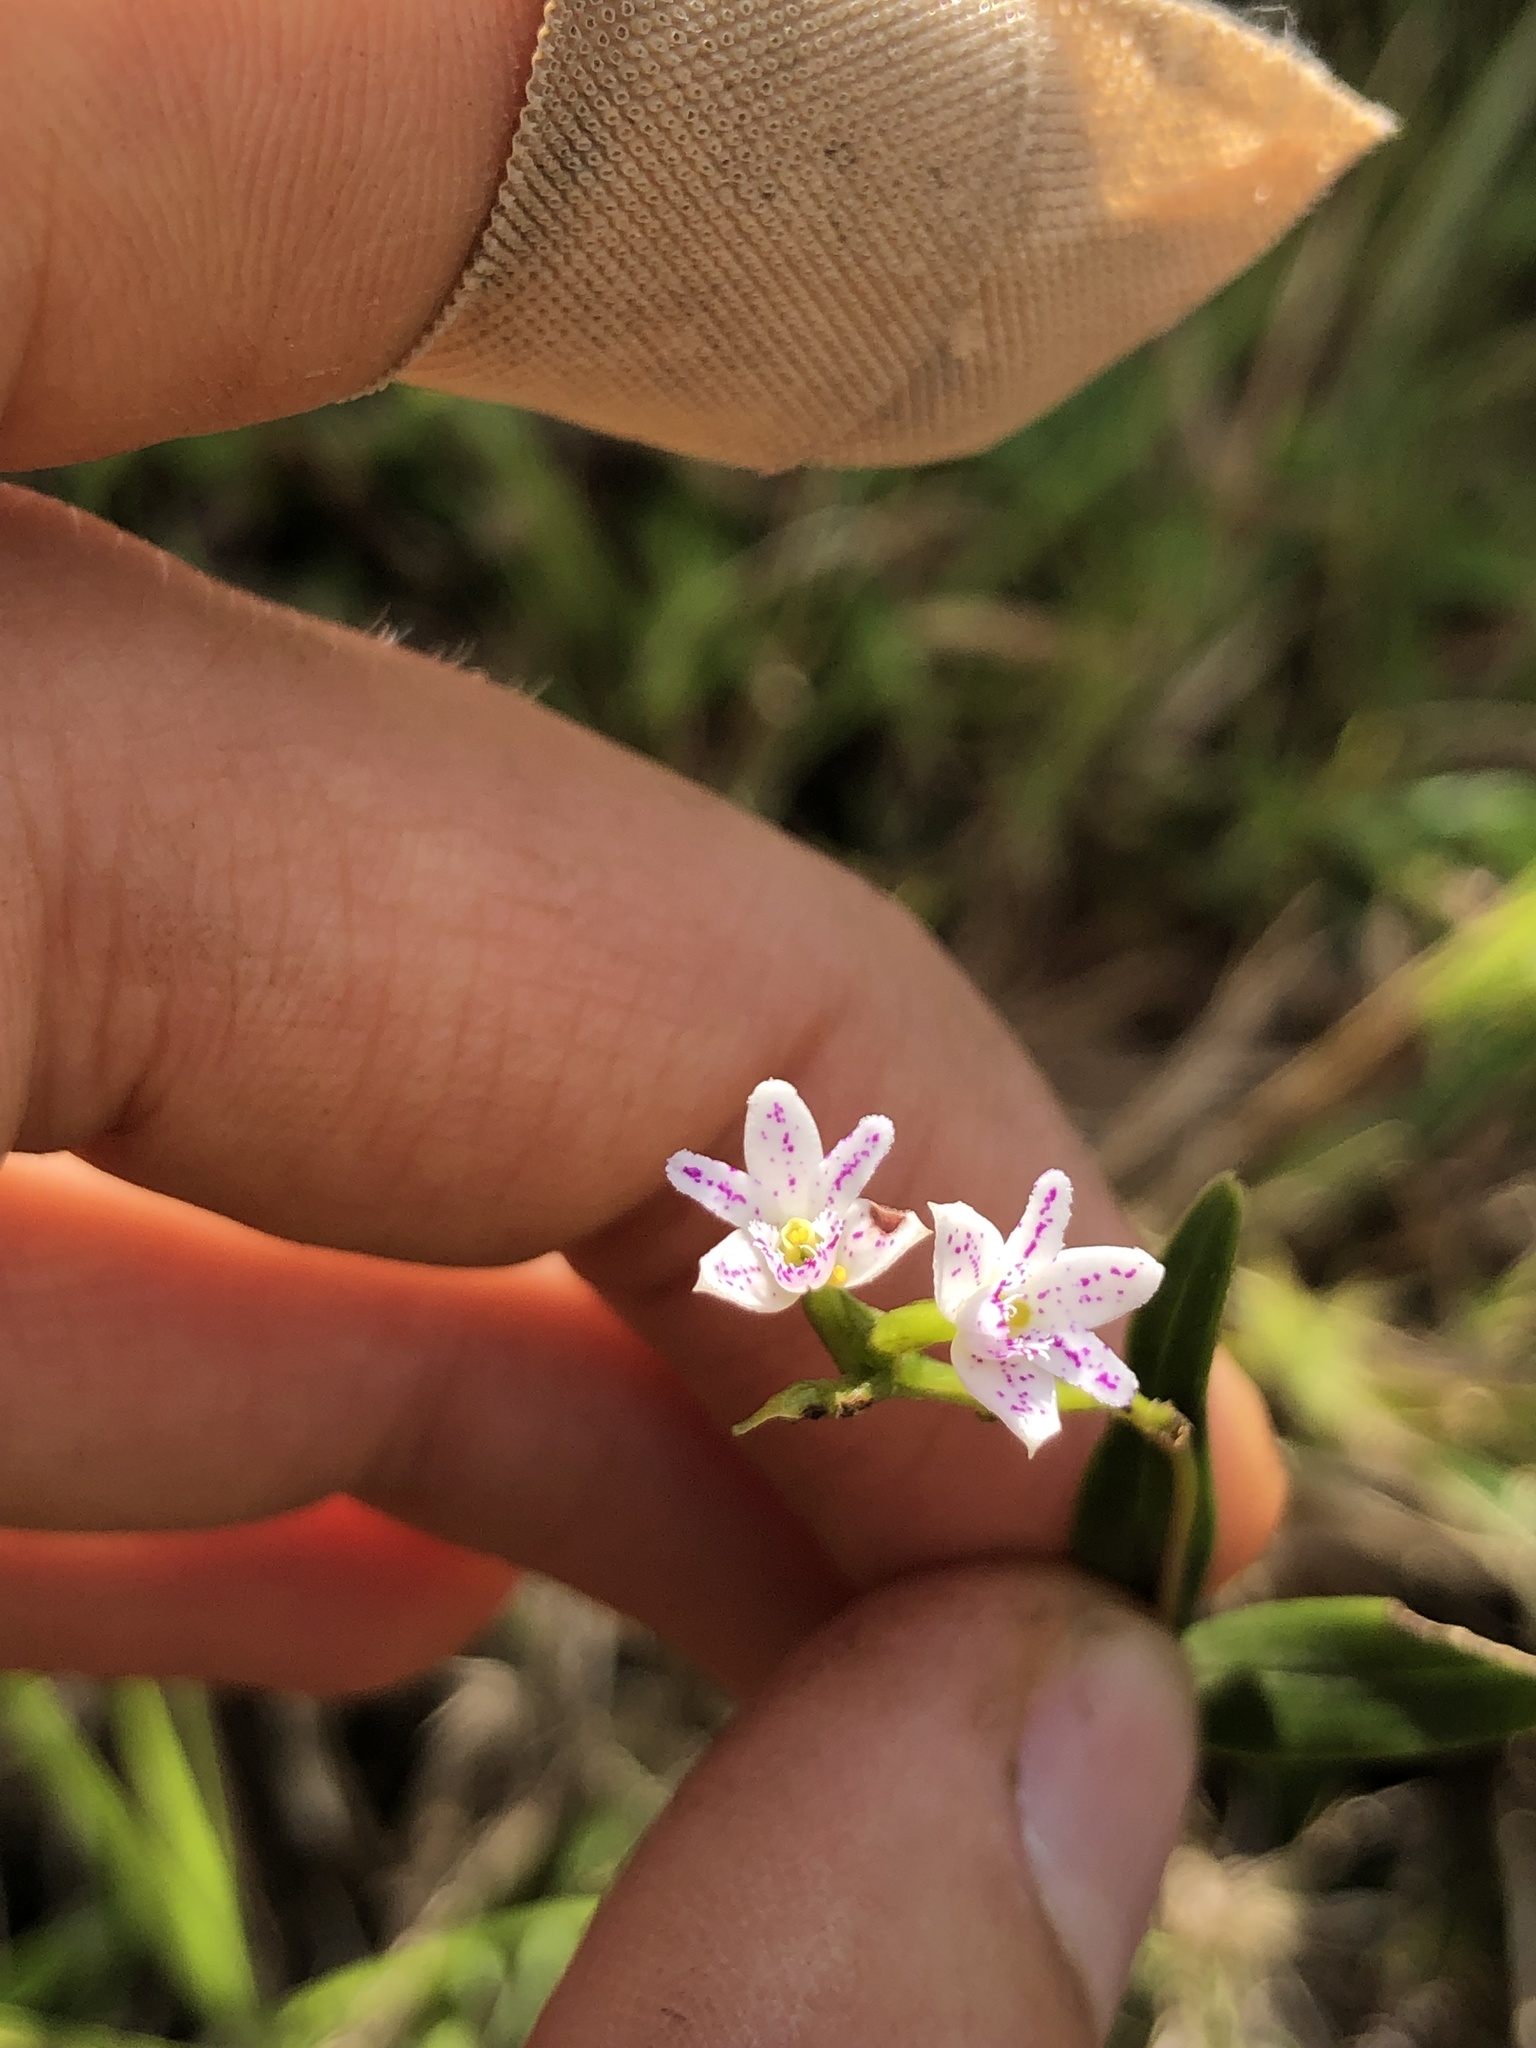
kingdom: Plantae
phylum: Tracheophyta
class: Liliopsida
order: Asparagales
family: Orchidaceae
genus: Epidendrum
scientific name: Epidendrum fimbriatum
